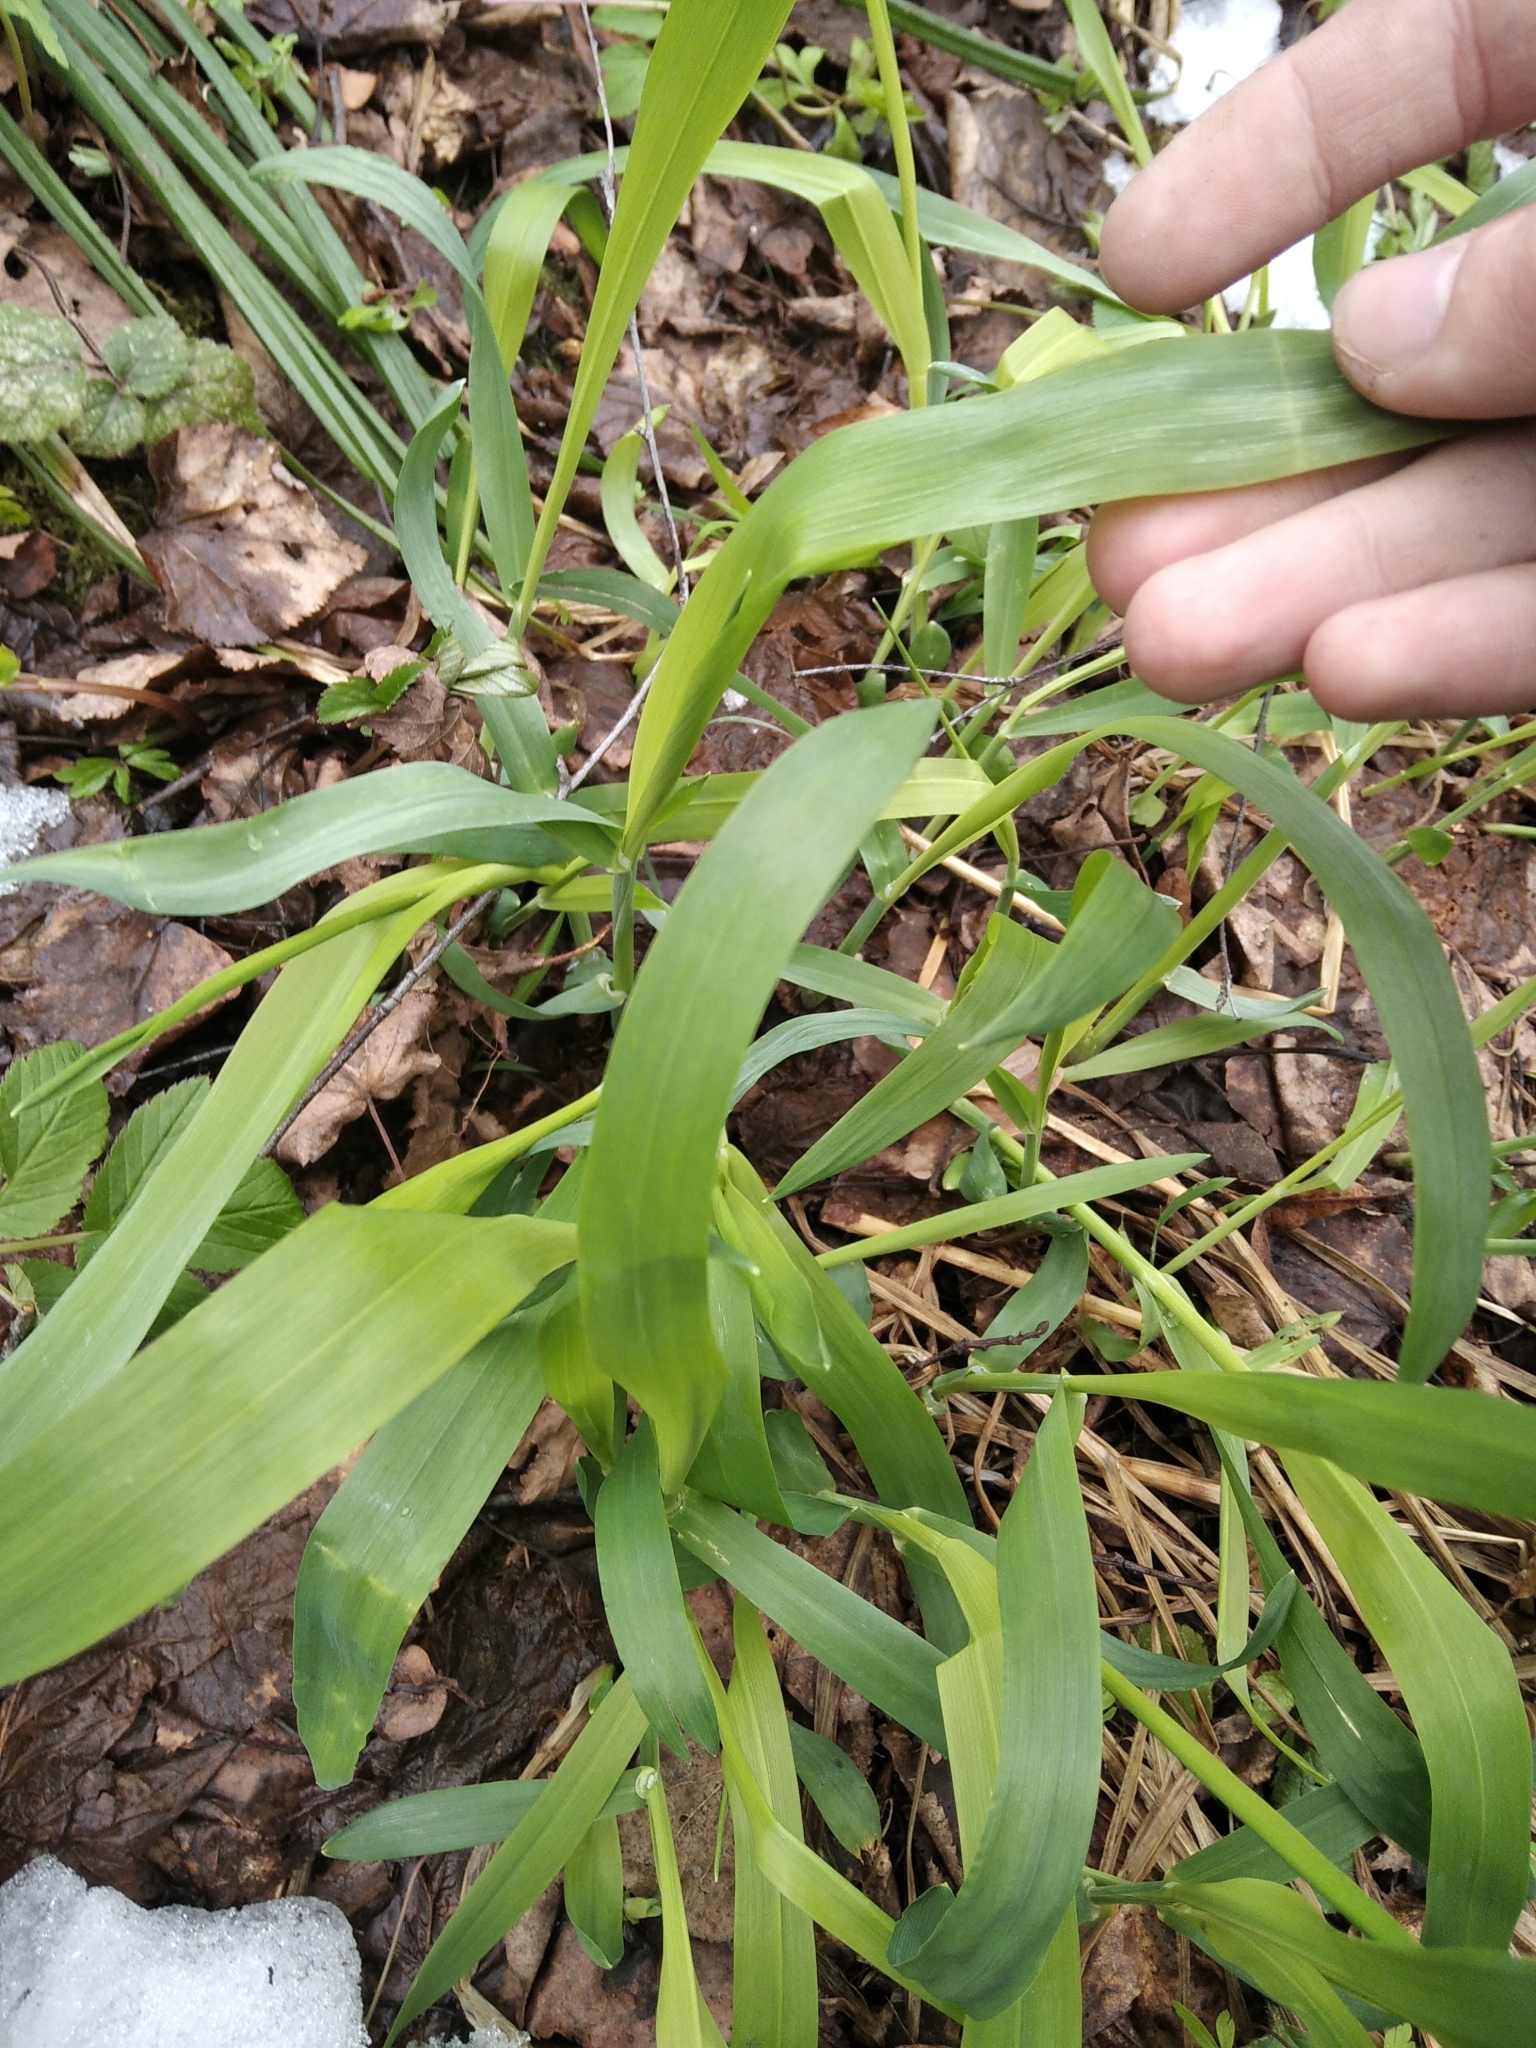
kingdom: Plantae
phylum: Tracheophyta
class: Liliopsida
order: Poales
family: Poaceae
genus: Milium
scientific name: Milium effusum
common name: Wood millet
